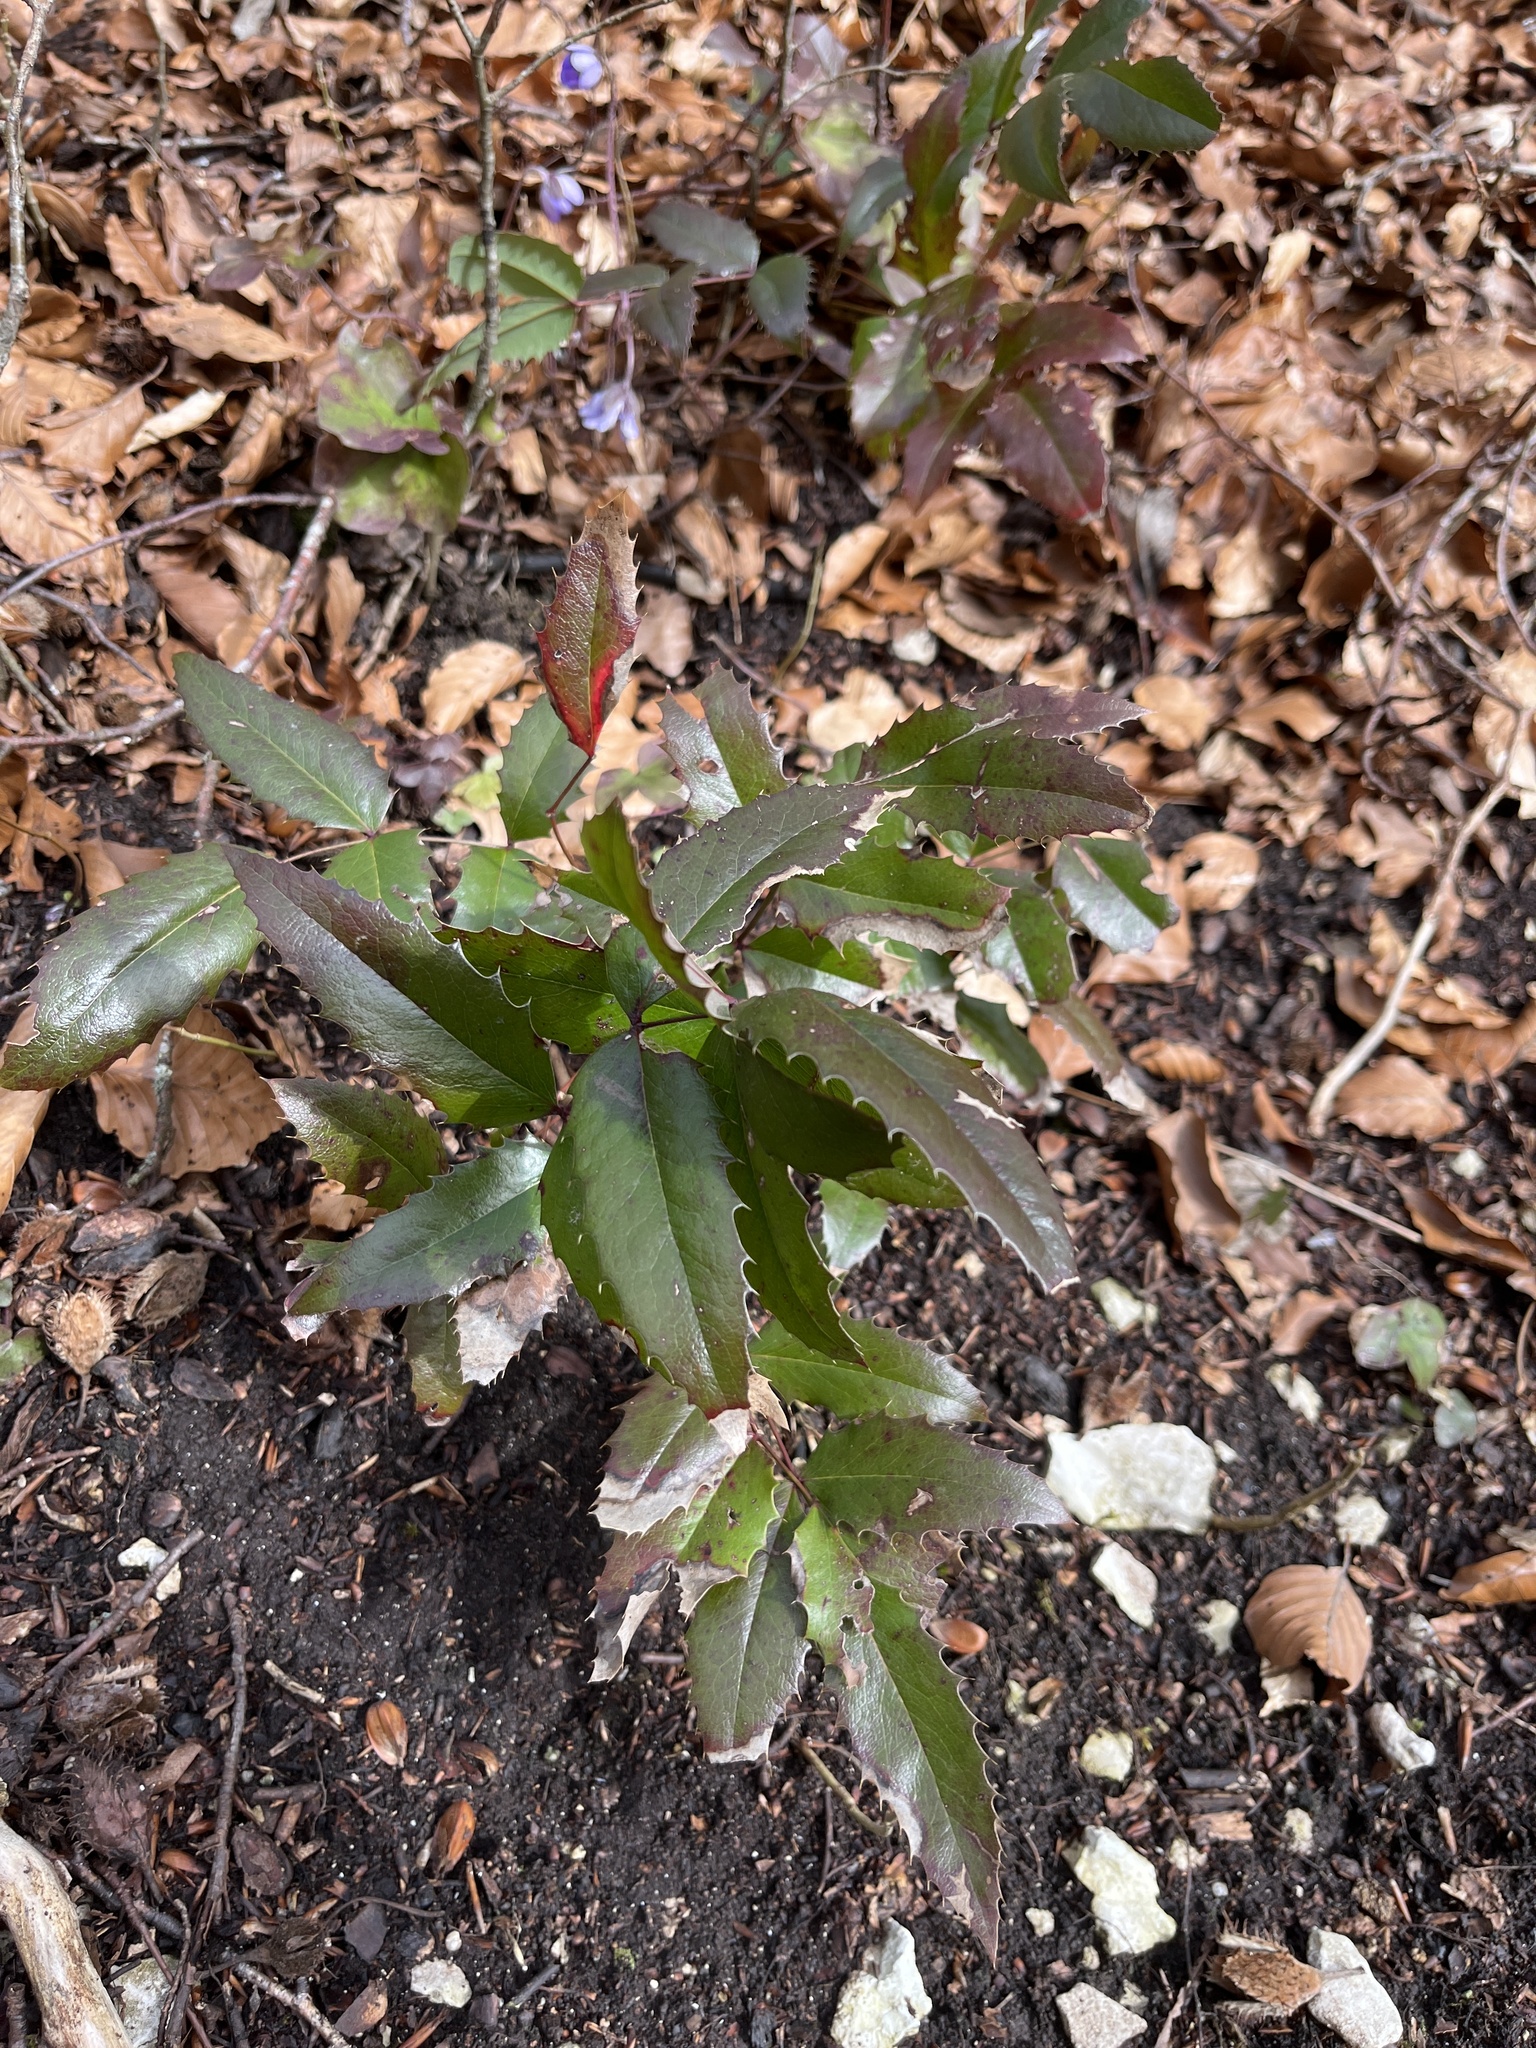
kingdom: Plantae
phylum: Tracheophyta
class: Magnoliopsida
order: Ranunculales
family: Berberidaceae
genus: Mahonia
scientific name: Mahonia aquifolium
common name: Oregon-grape
